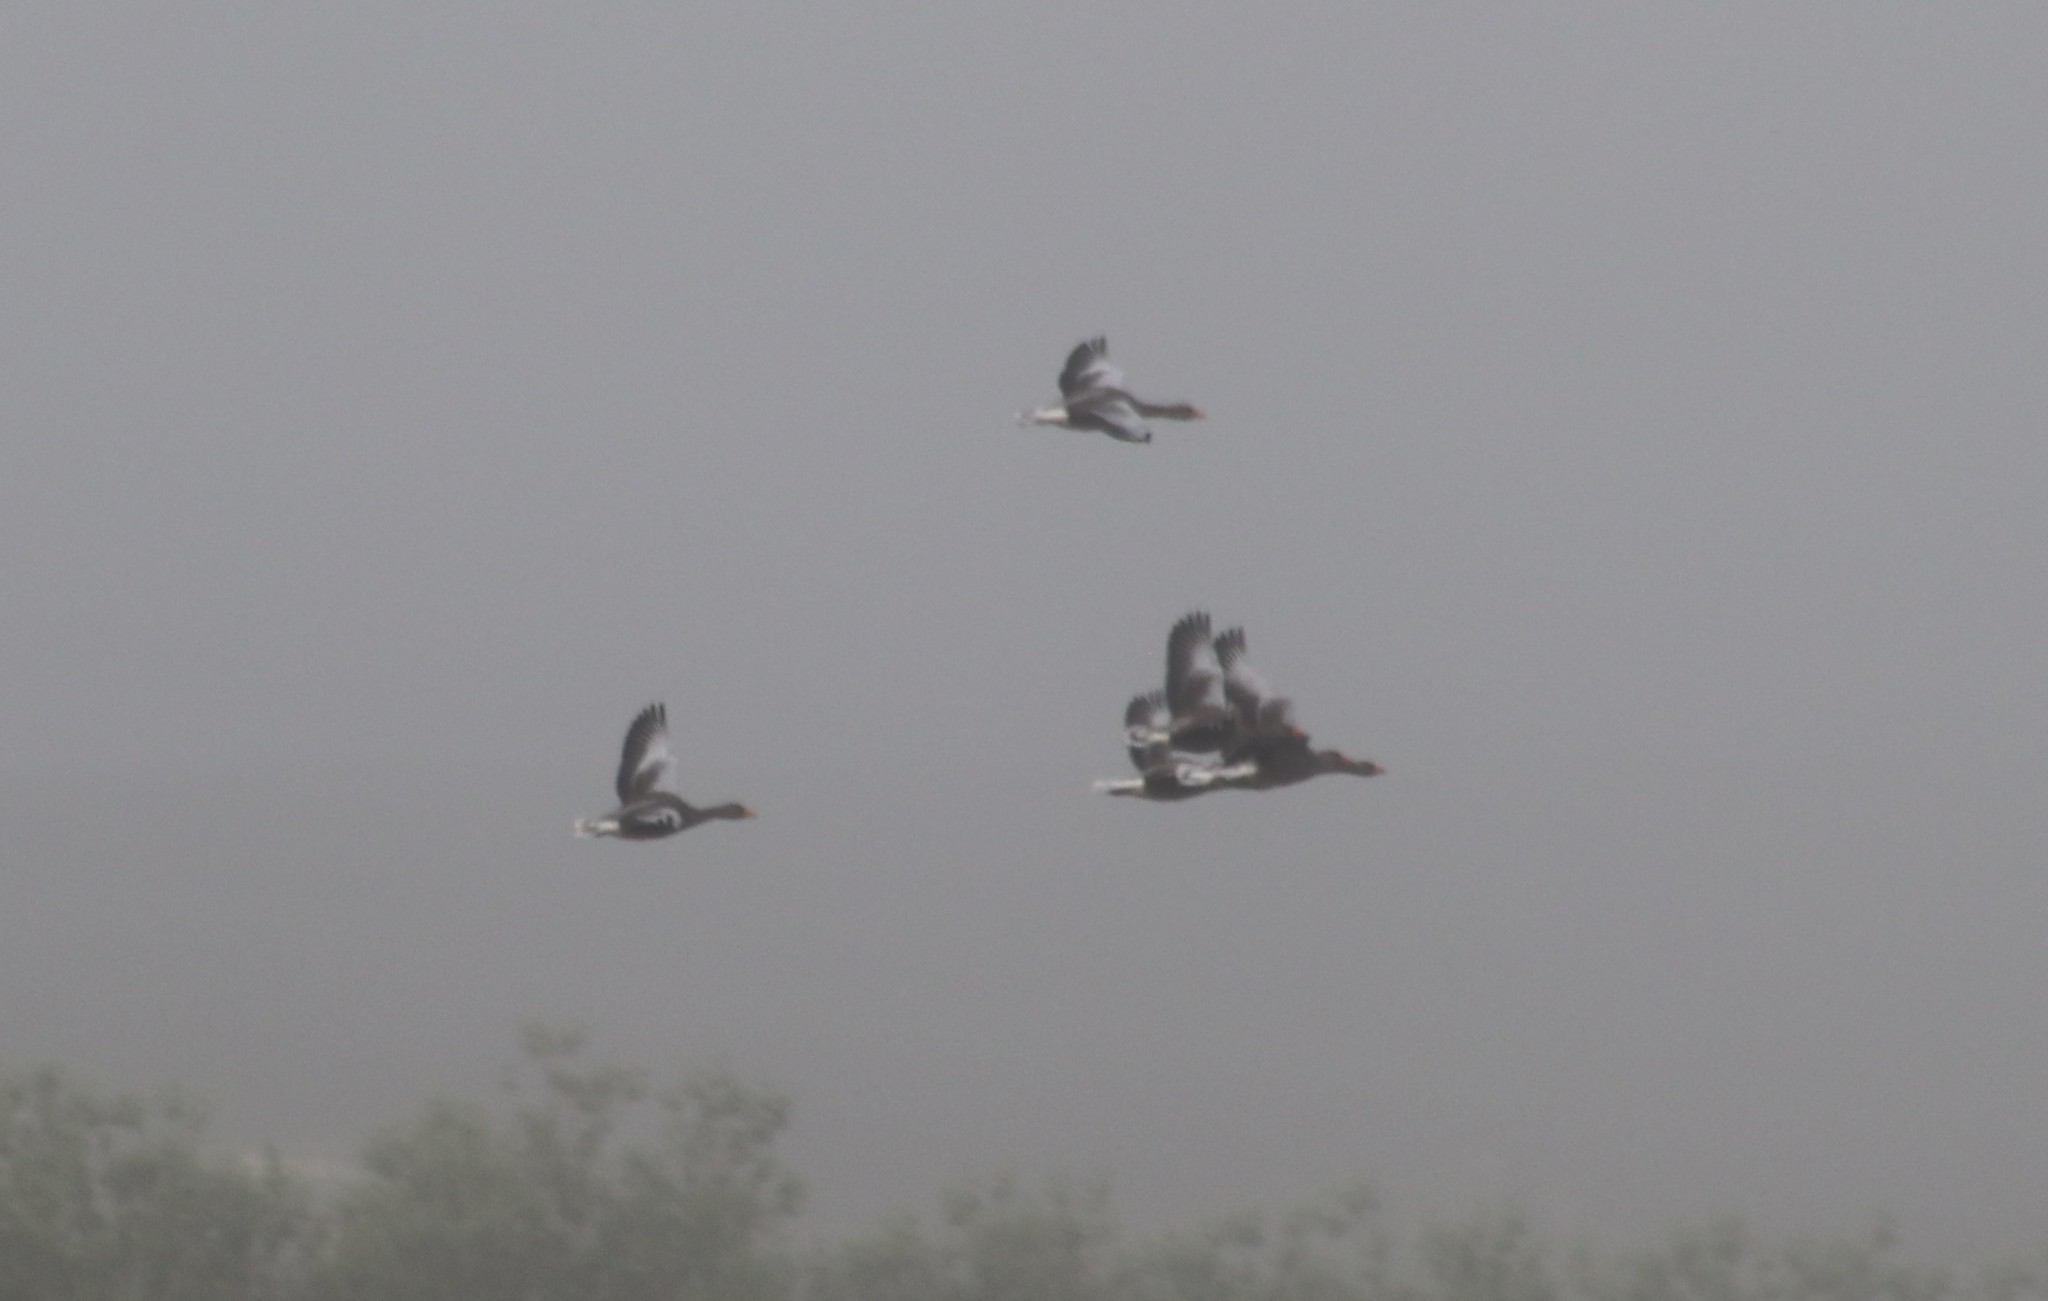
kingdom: Animalia
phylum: Chordata
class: Aves
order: Anseriformes
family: Anatidae
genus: Anser
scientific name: Anser anser
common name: Greylag goose
